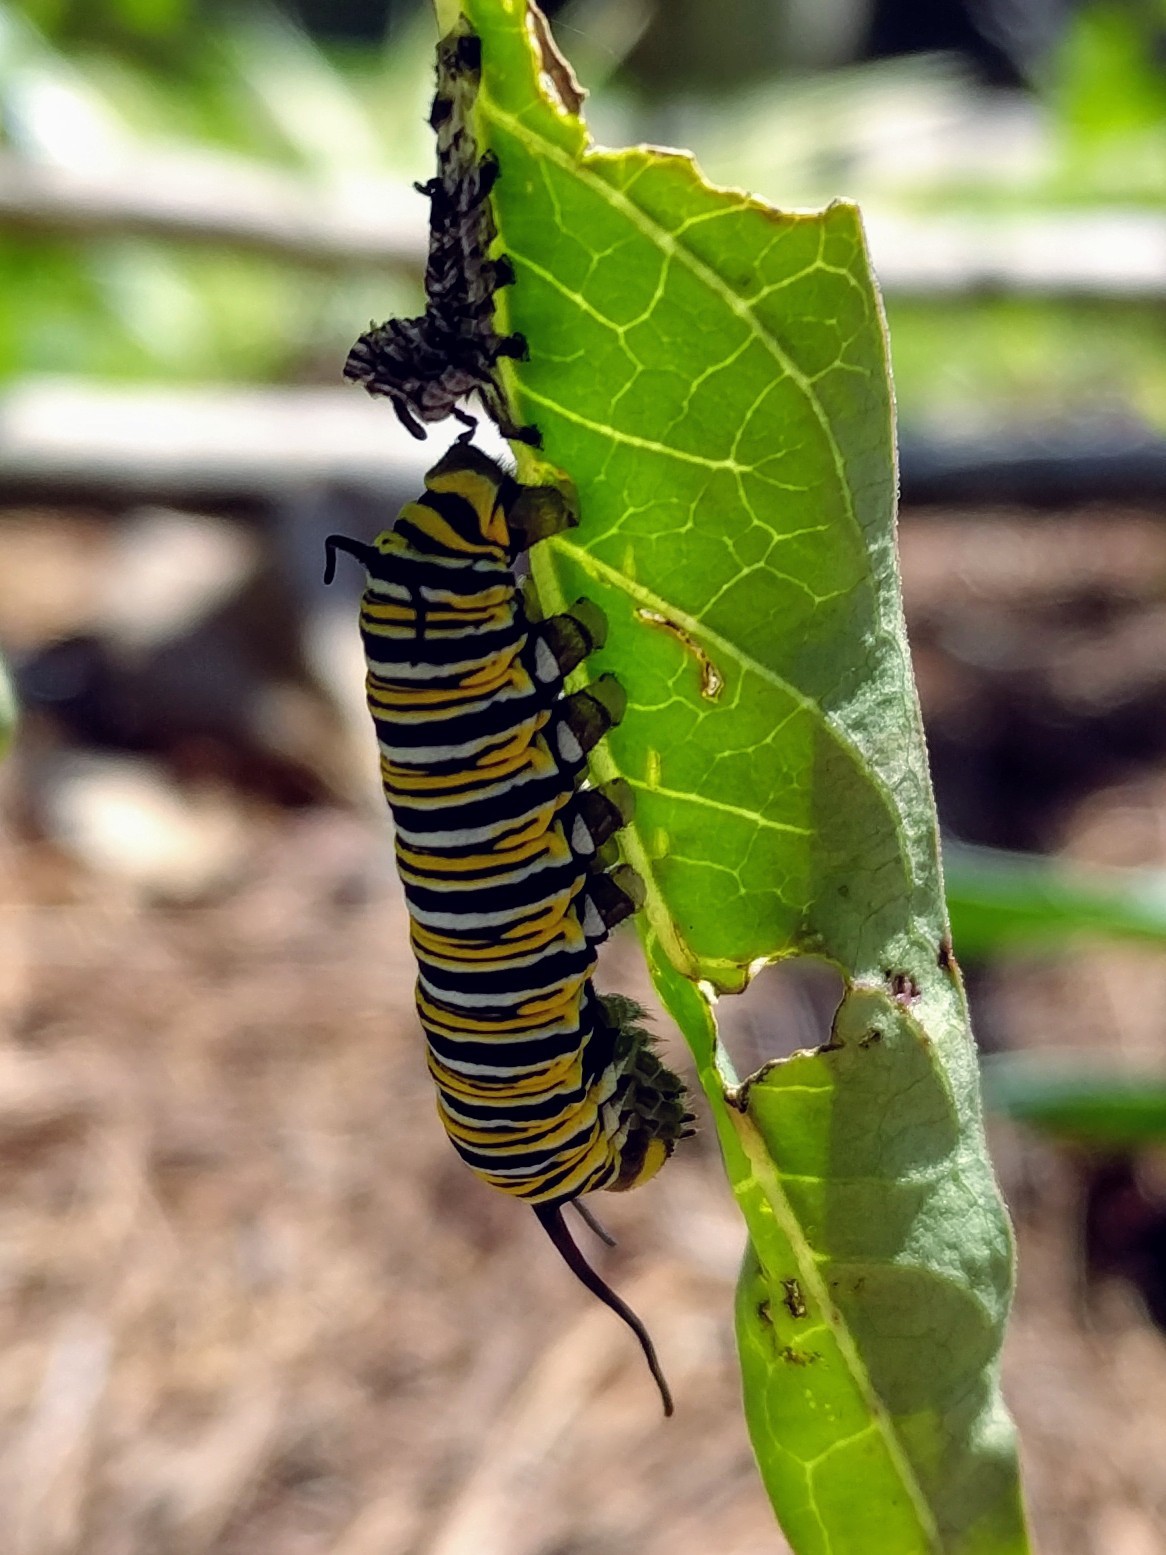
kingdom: Animalia
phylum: Arthropoda
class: Insecta
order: Lepidoptera
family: Nymphalidae
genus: Danaus
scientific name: Danaus plexippus
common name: Monarch
